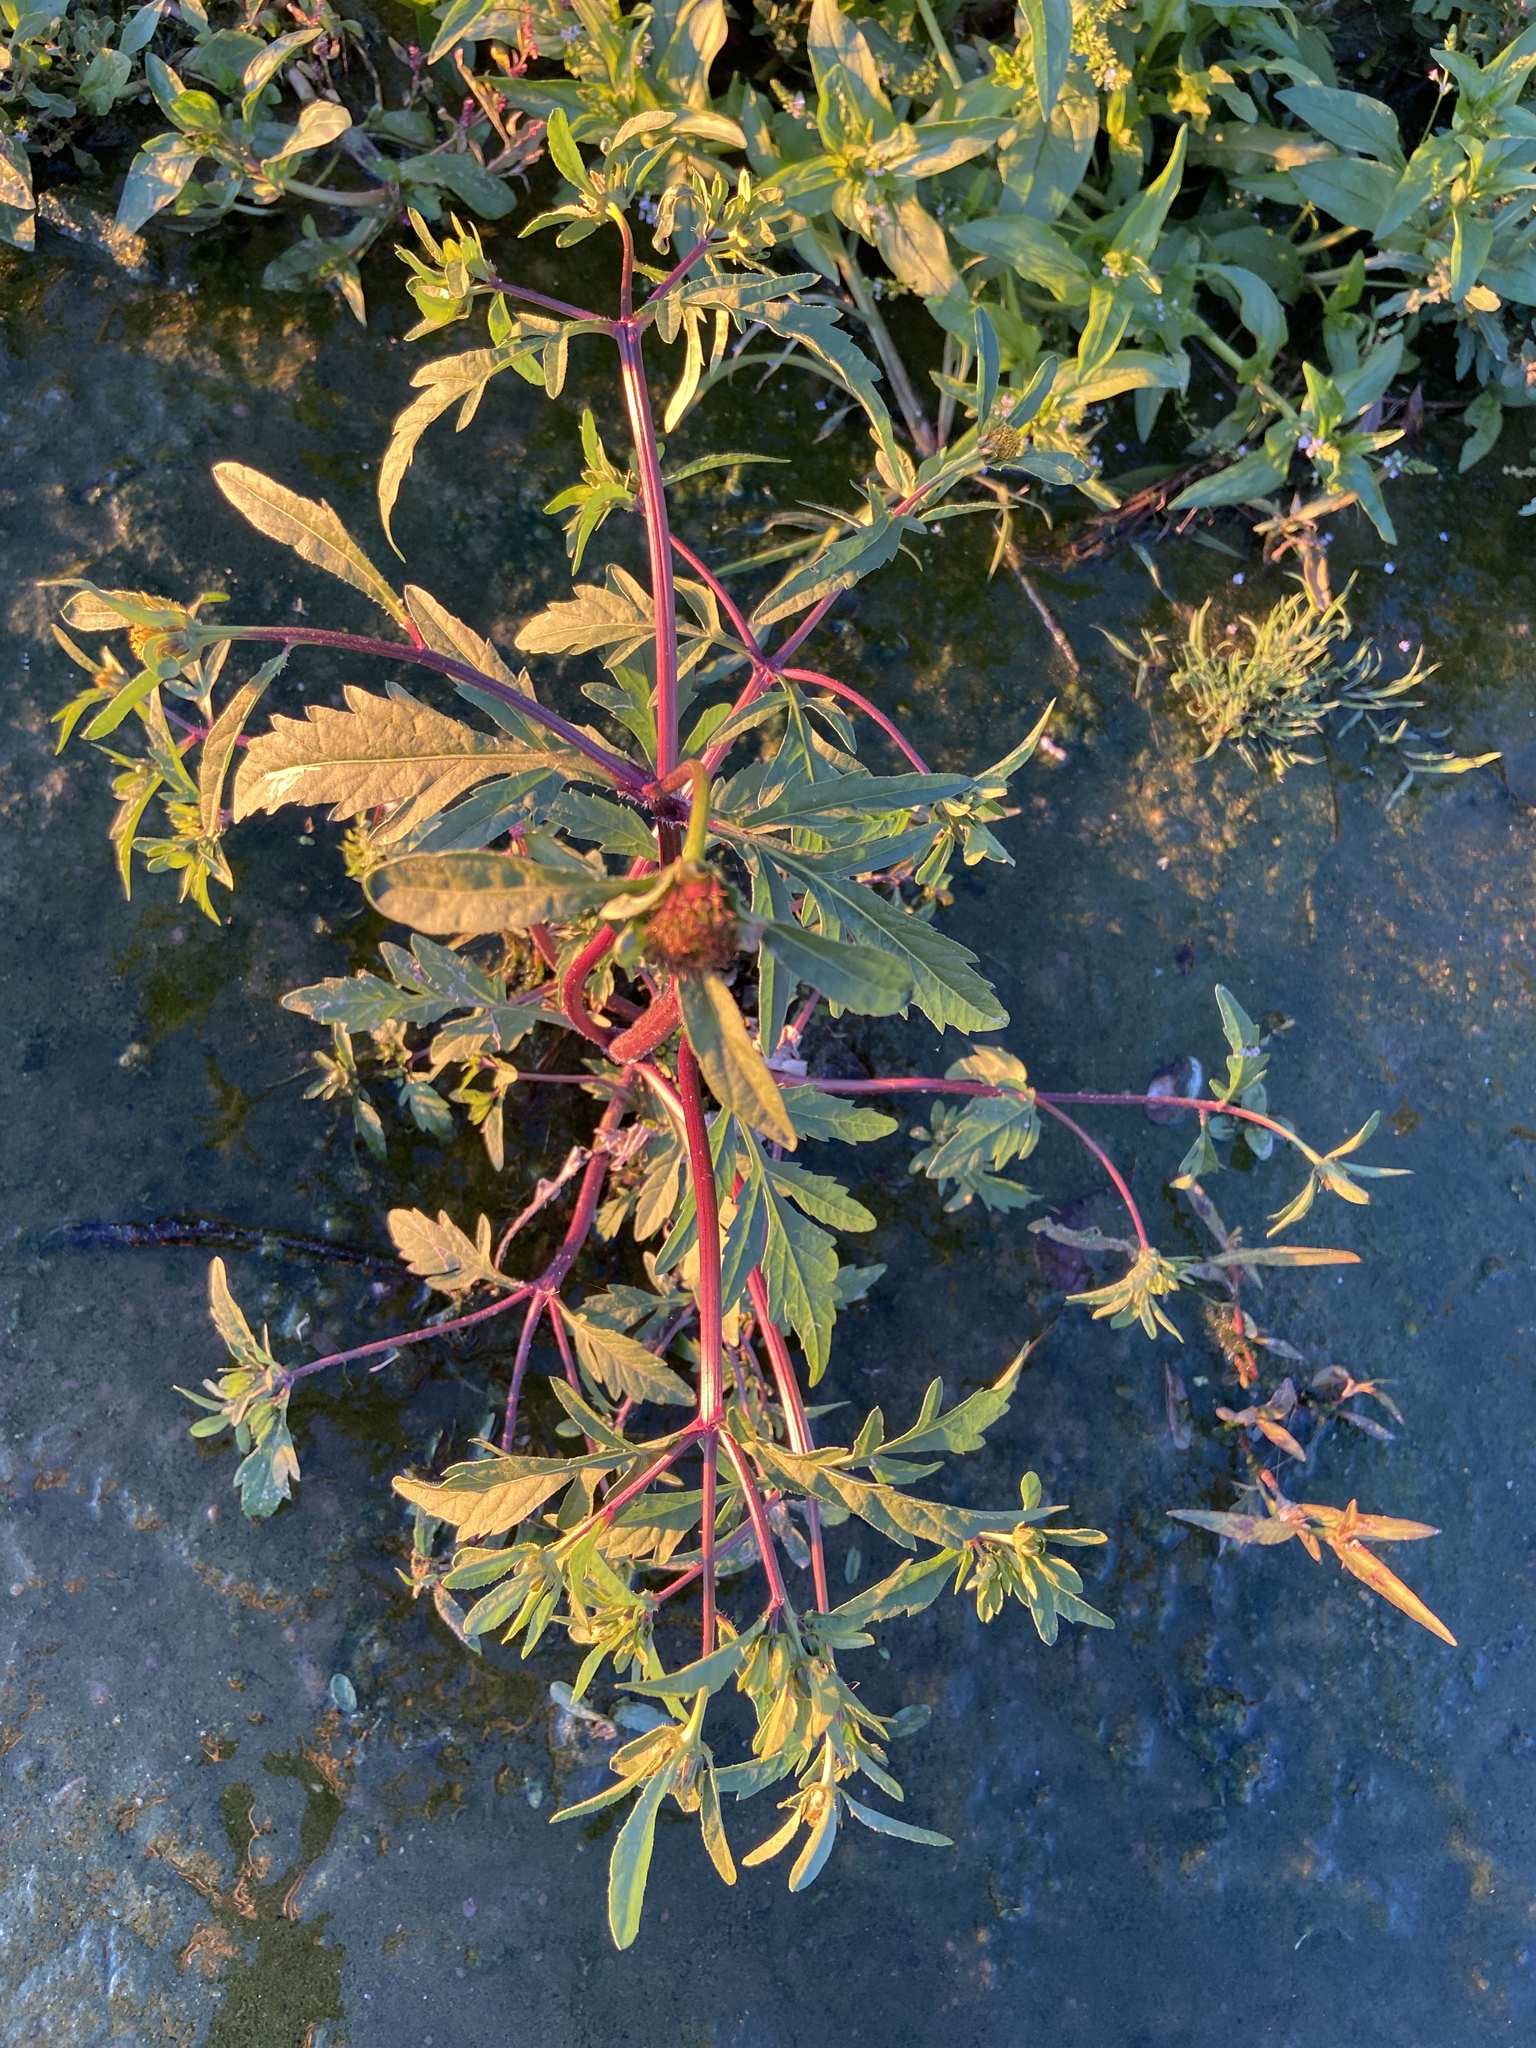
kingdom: Plantae
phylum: Tracheophyta
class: Magnoliopsida
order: Asterales
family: Asteraceae
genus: Bidens
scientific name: Bidens tripartita
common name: Trifid bur-marigold
